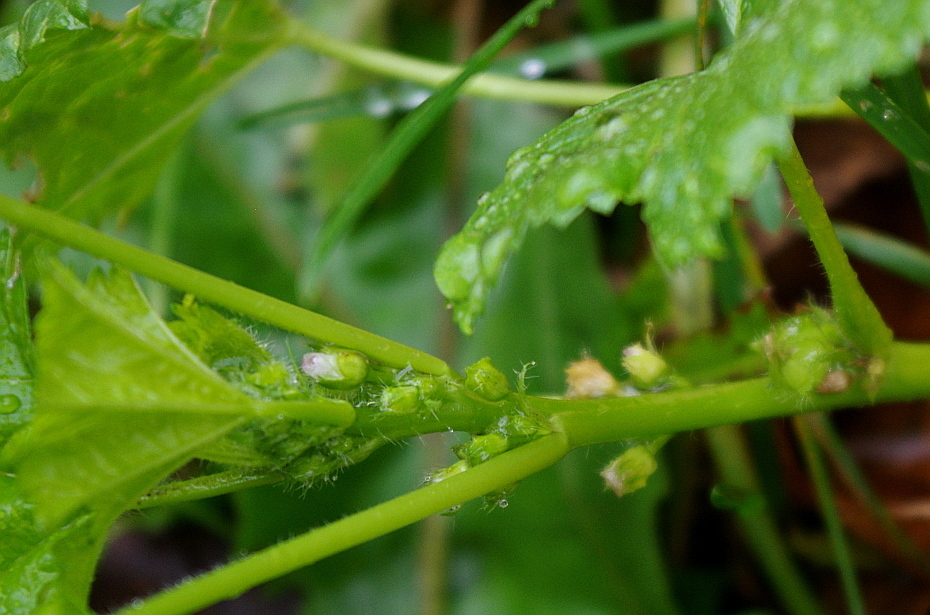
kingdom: Plantae
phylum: Tracheophyta
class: Magnoliopsida
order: Malvales
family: Malvaceae
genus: Malva
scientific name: Malva pusilla
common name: Small mallow
